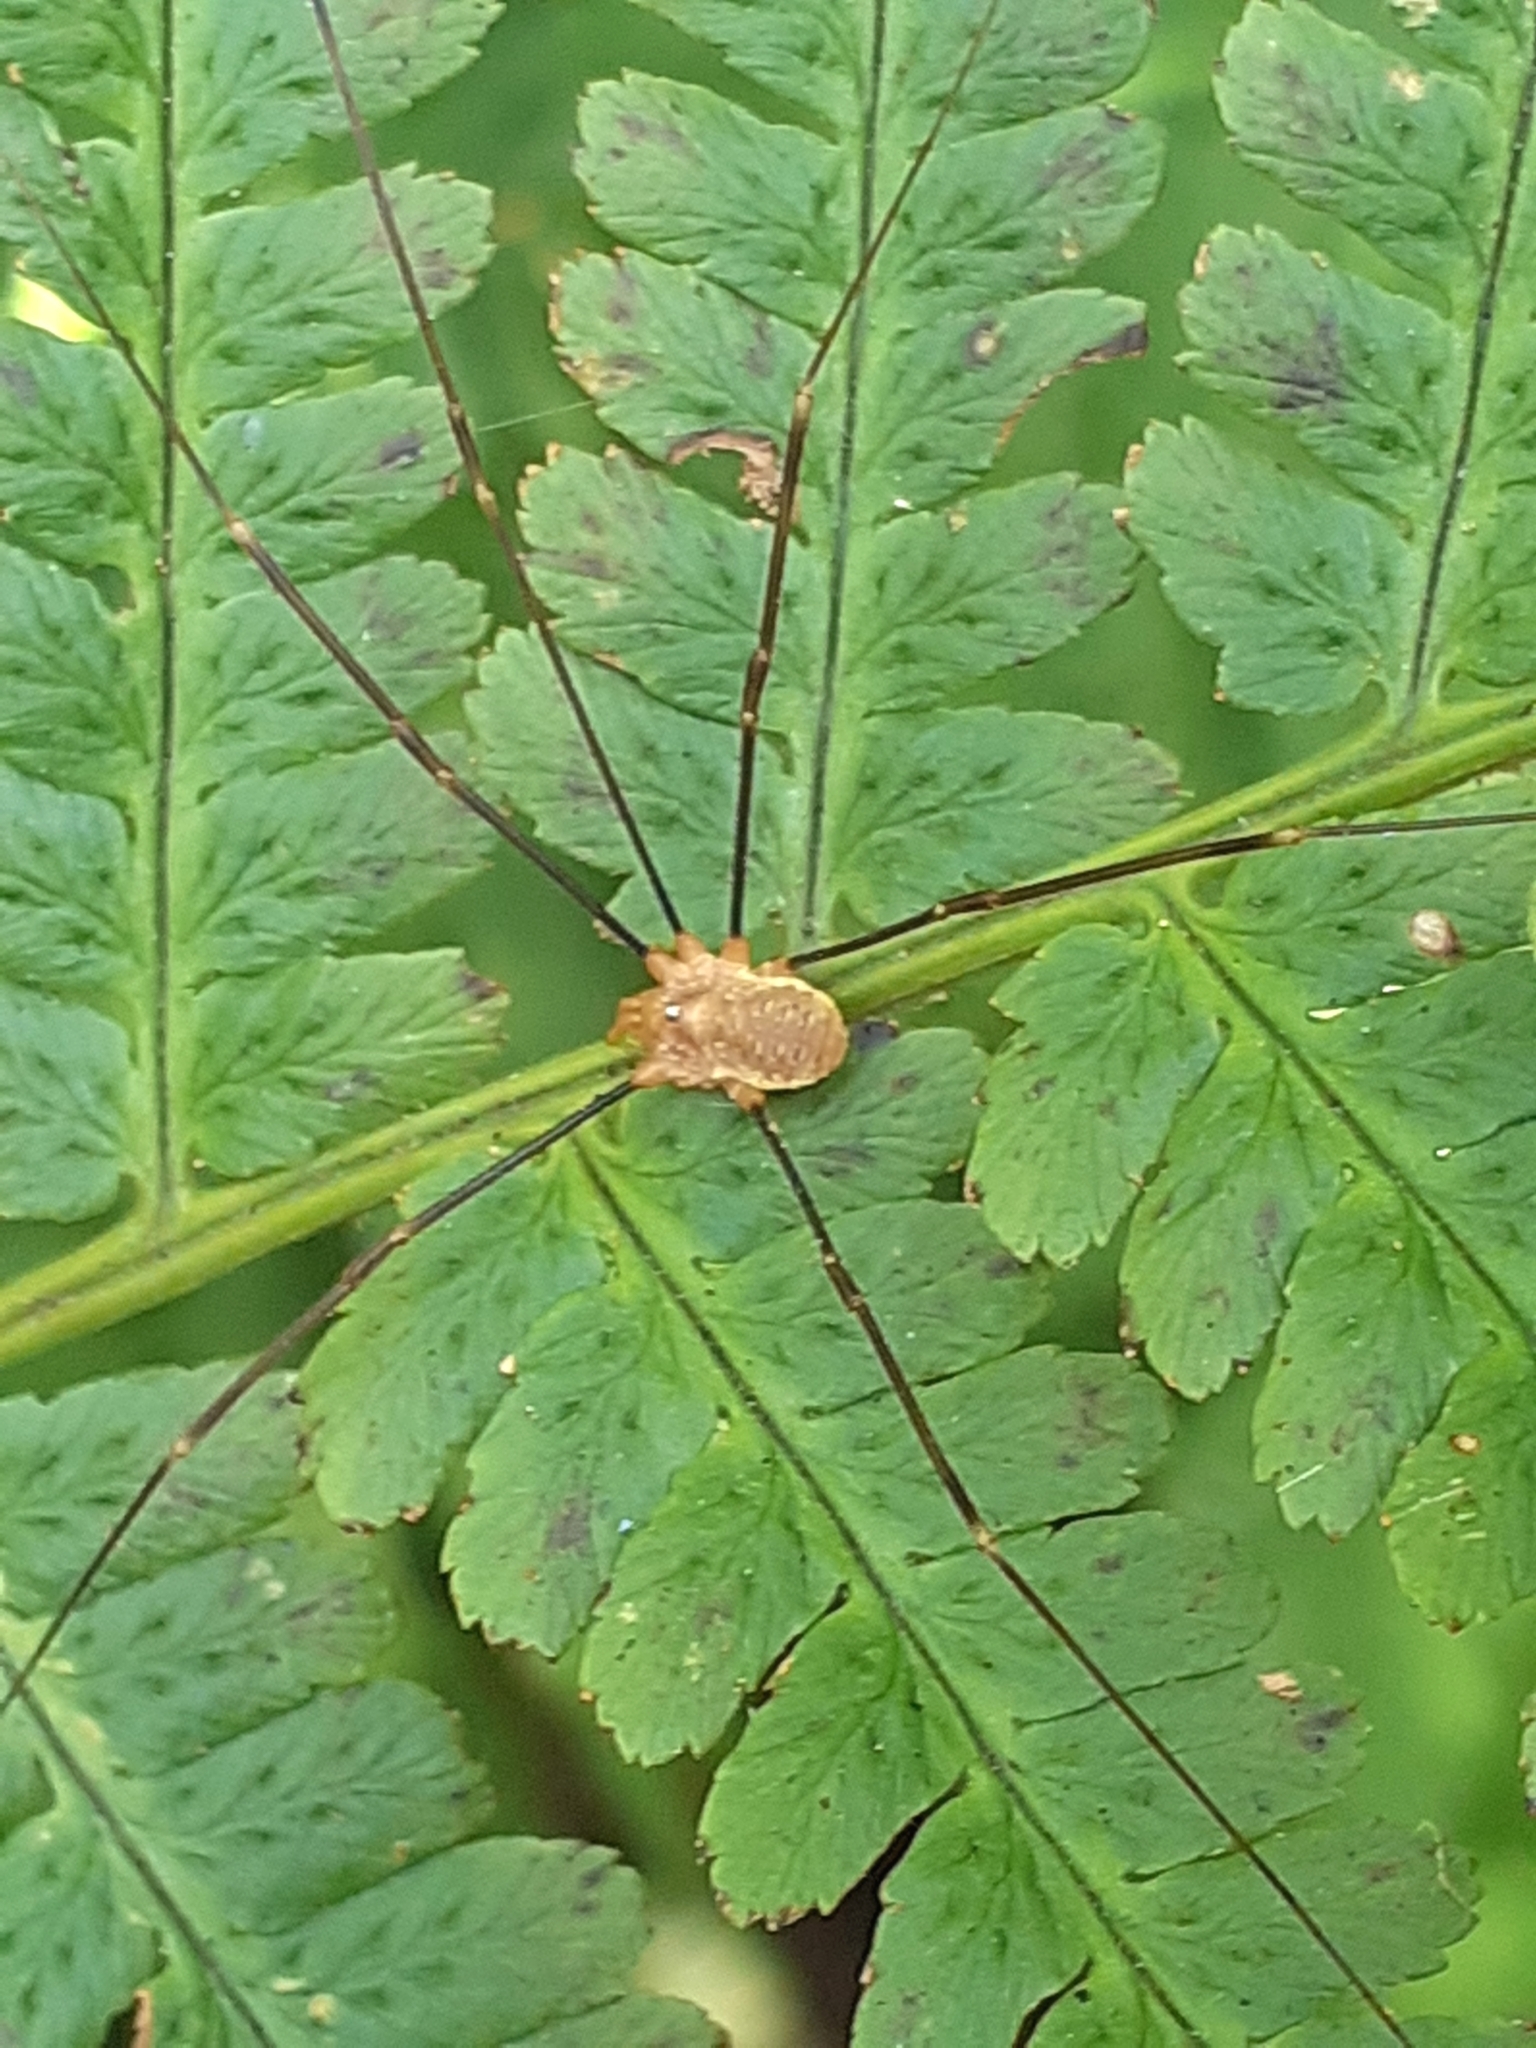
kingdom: Animalia
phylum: Arthropoda
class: Arachnida
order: Opiliones
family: Phalangiidae
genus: Opilio
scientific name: Opilio canestrinii
